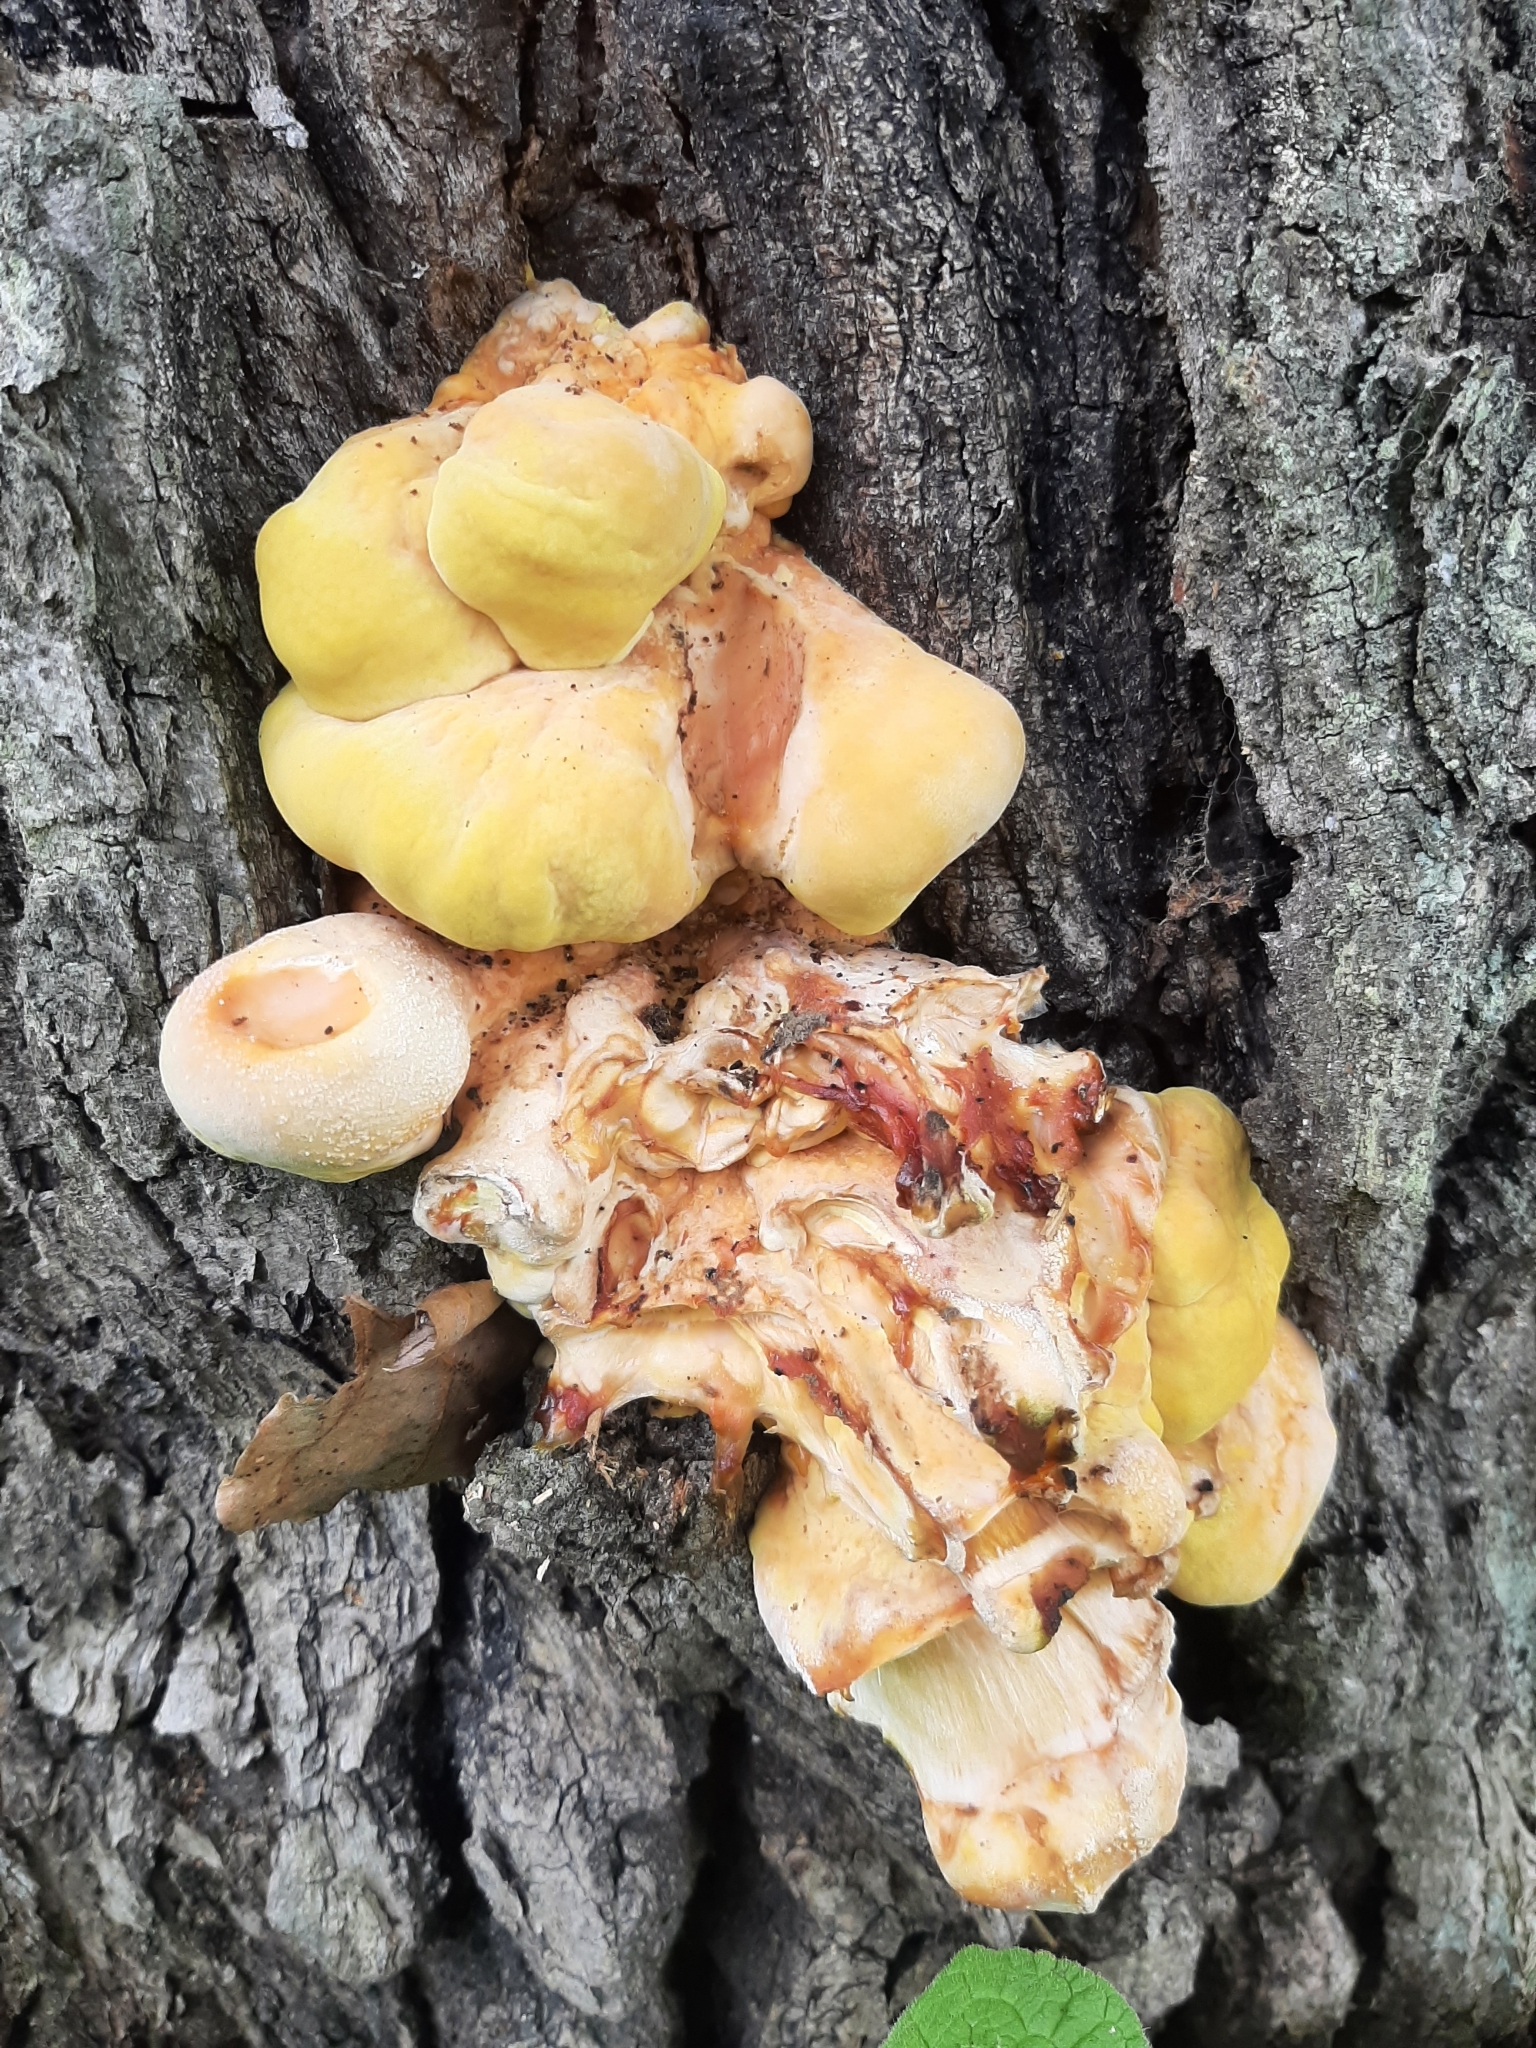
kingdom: Fungi
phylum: Basidiomycota
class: Agaricomycetes
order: Polyporales
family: Laetiporaceae
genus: Laetiporus
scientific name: Laetiporus sulphureus
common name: Chicken of the woods
